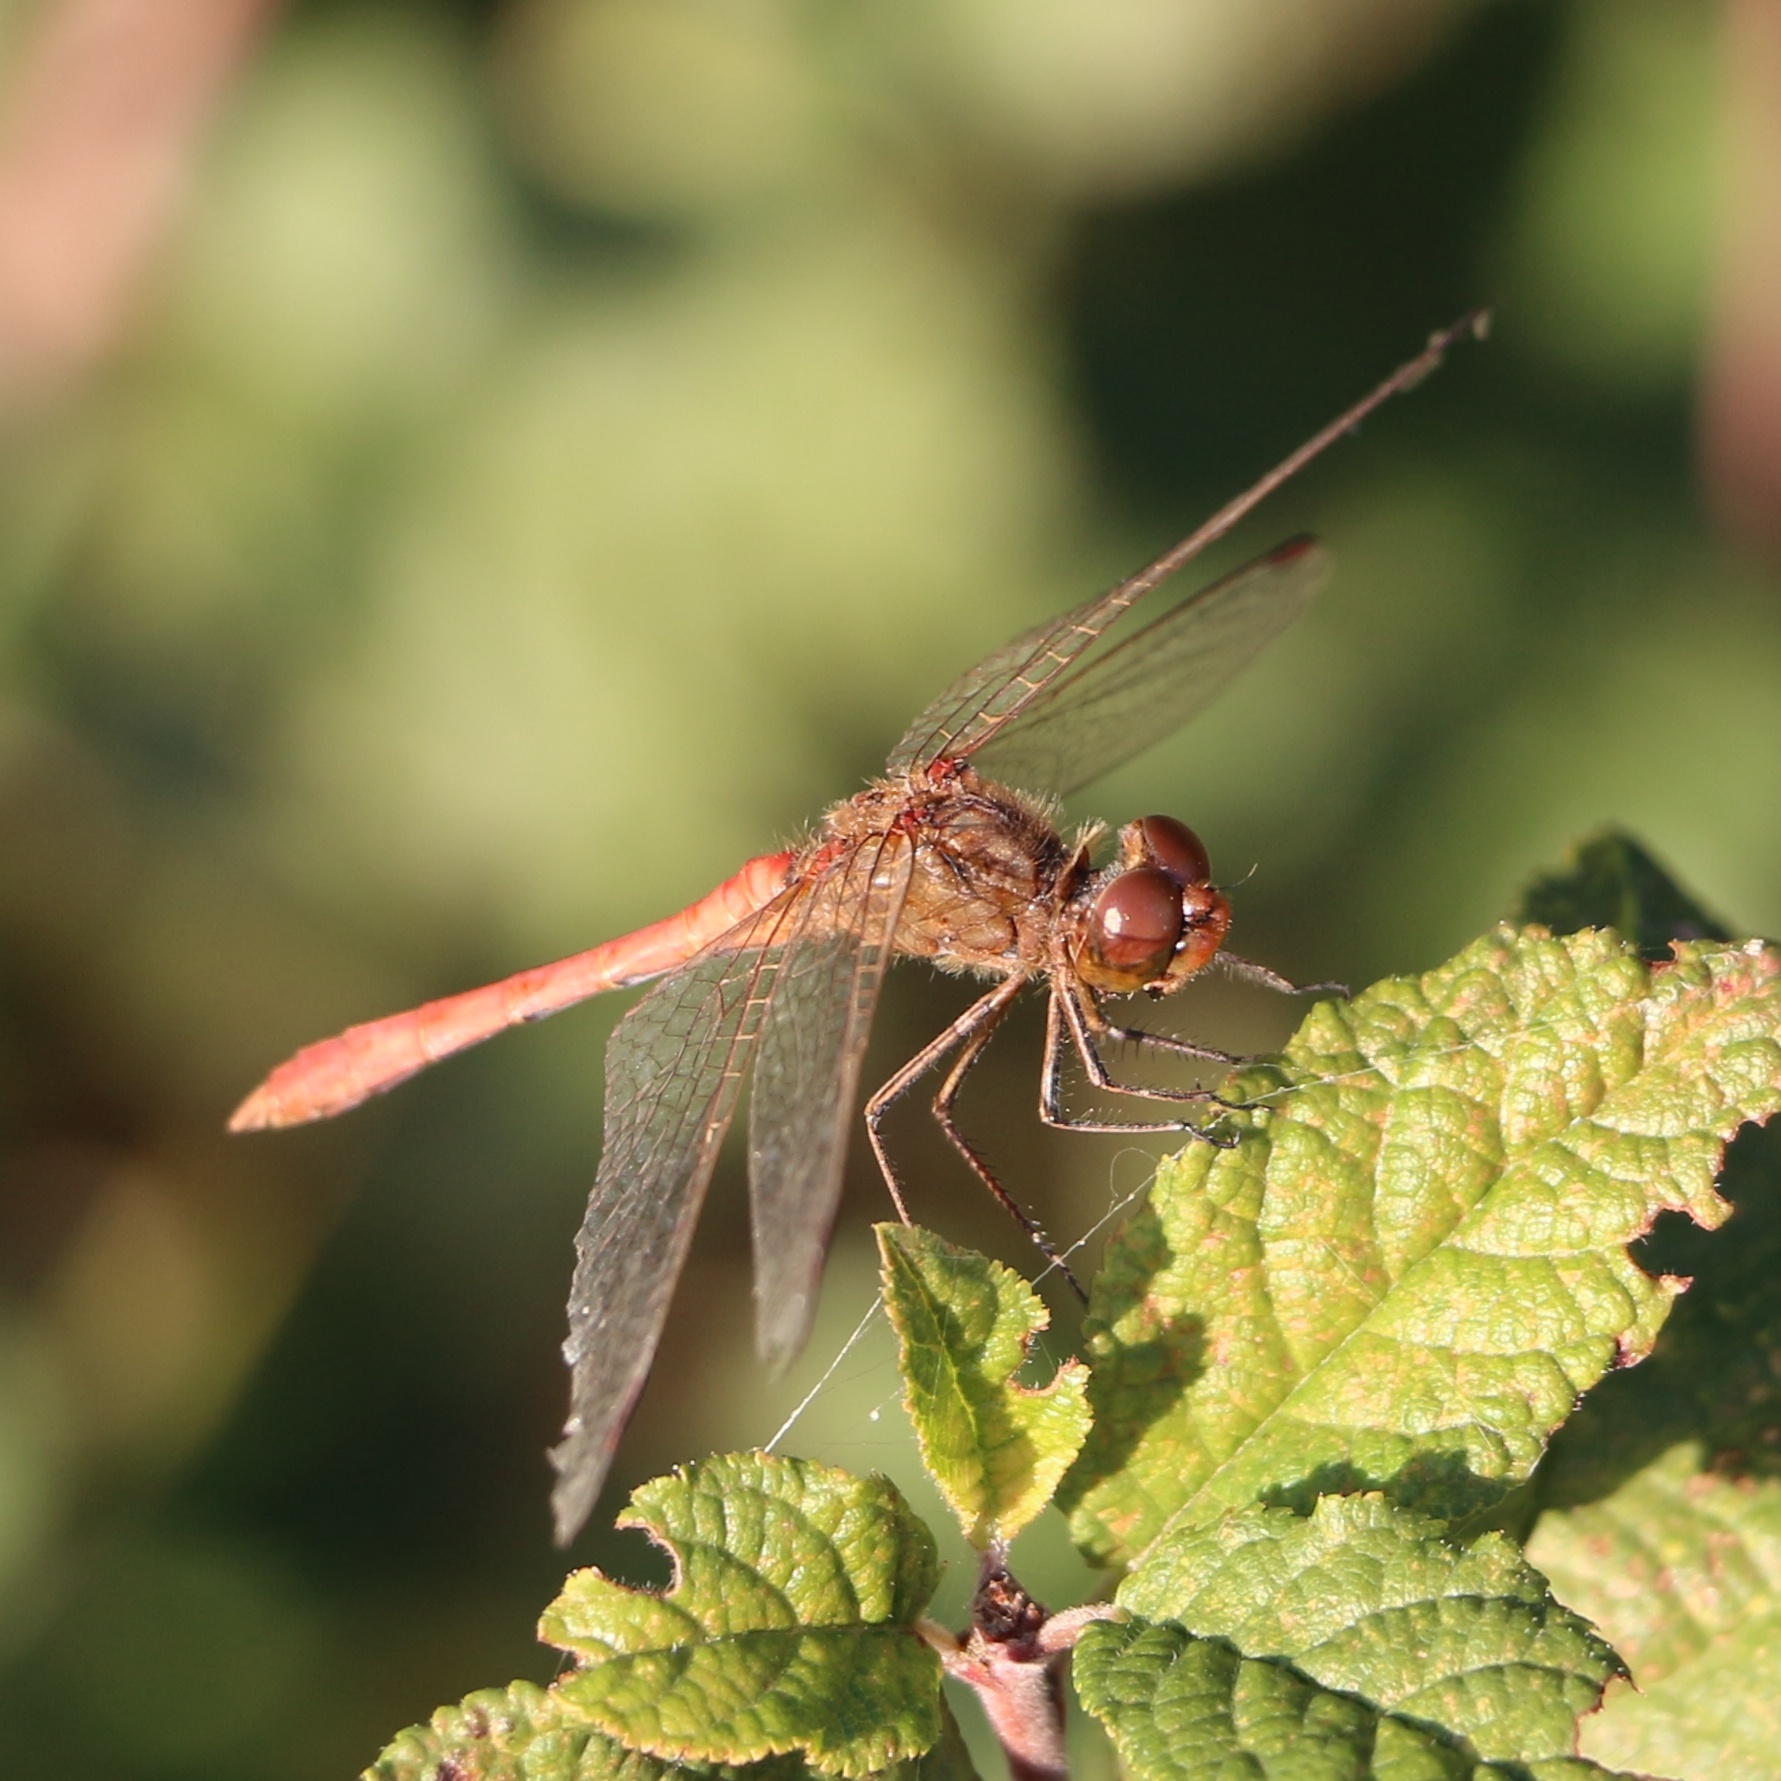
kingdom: Animalia
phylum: Arthropoda
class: Insecta
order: Odonata
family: Libellulidae
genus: Sympetrum
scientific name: Sympetrum meridionale
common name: Southern darter
